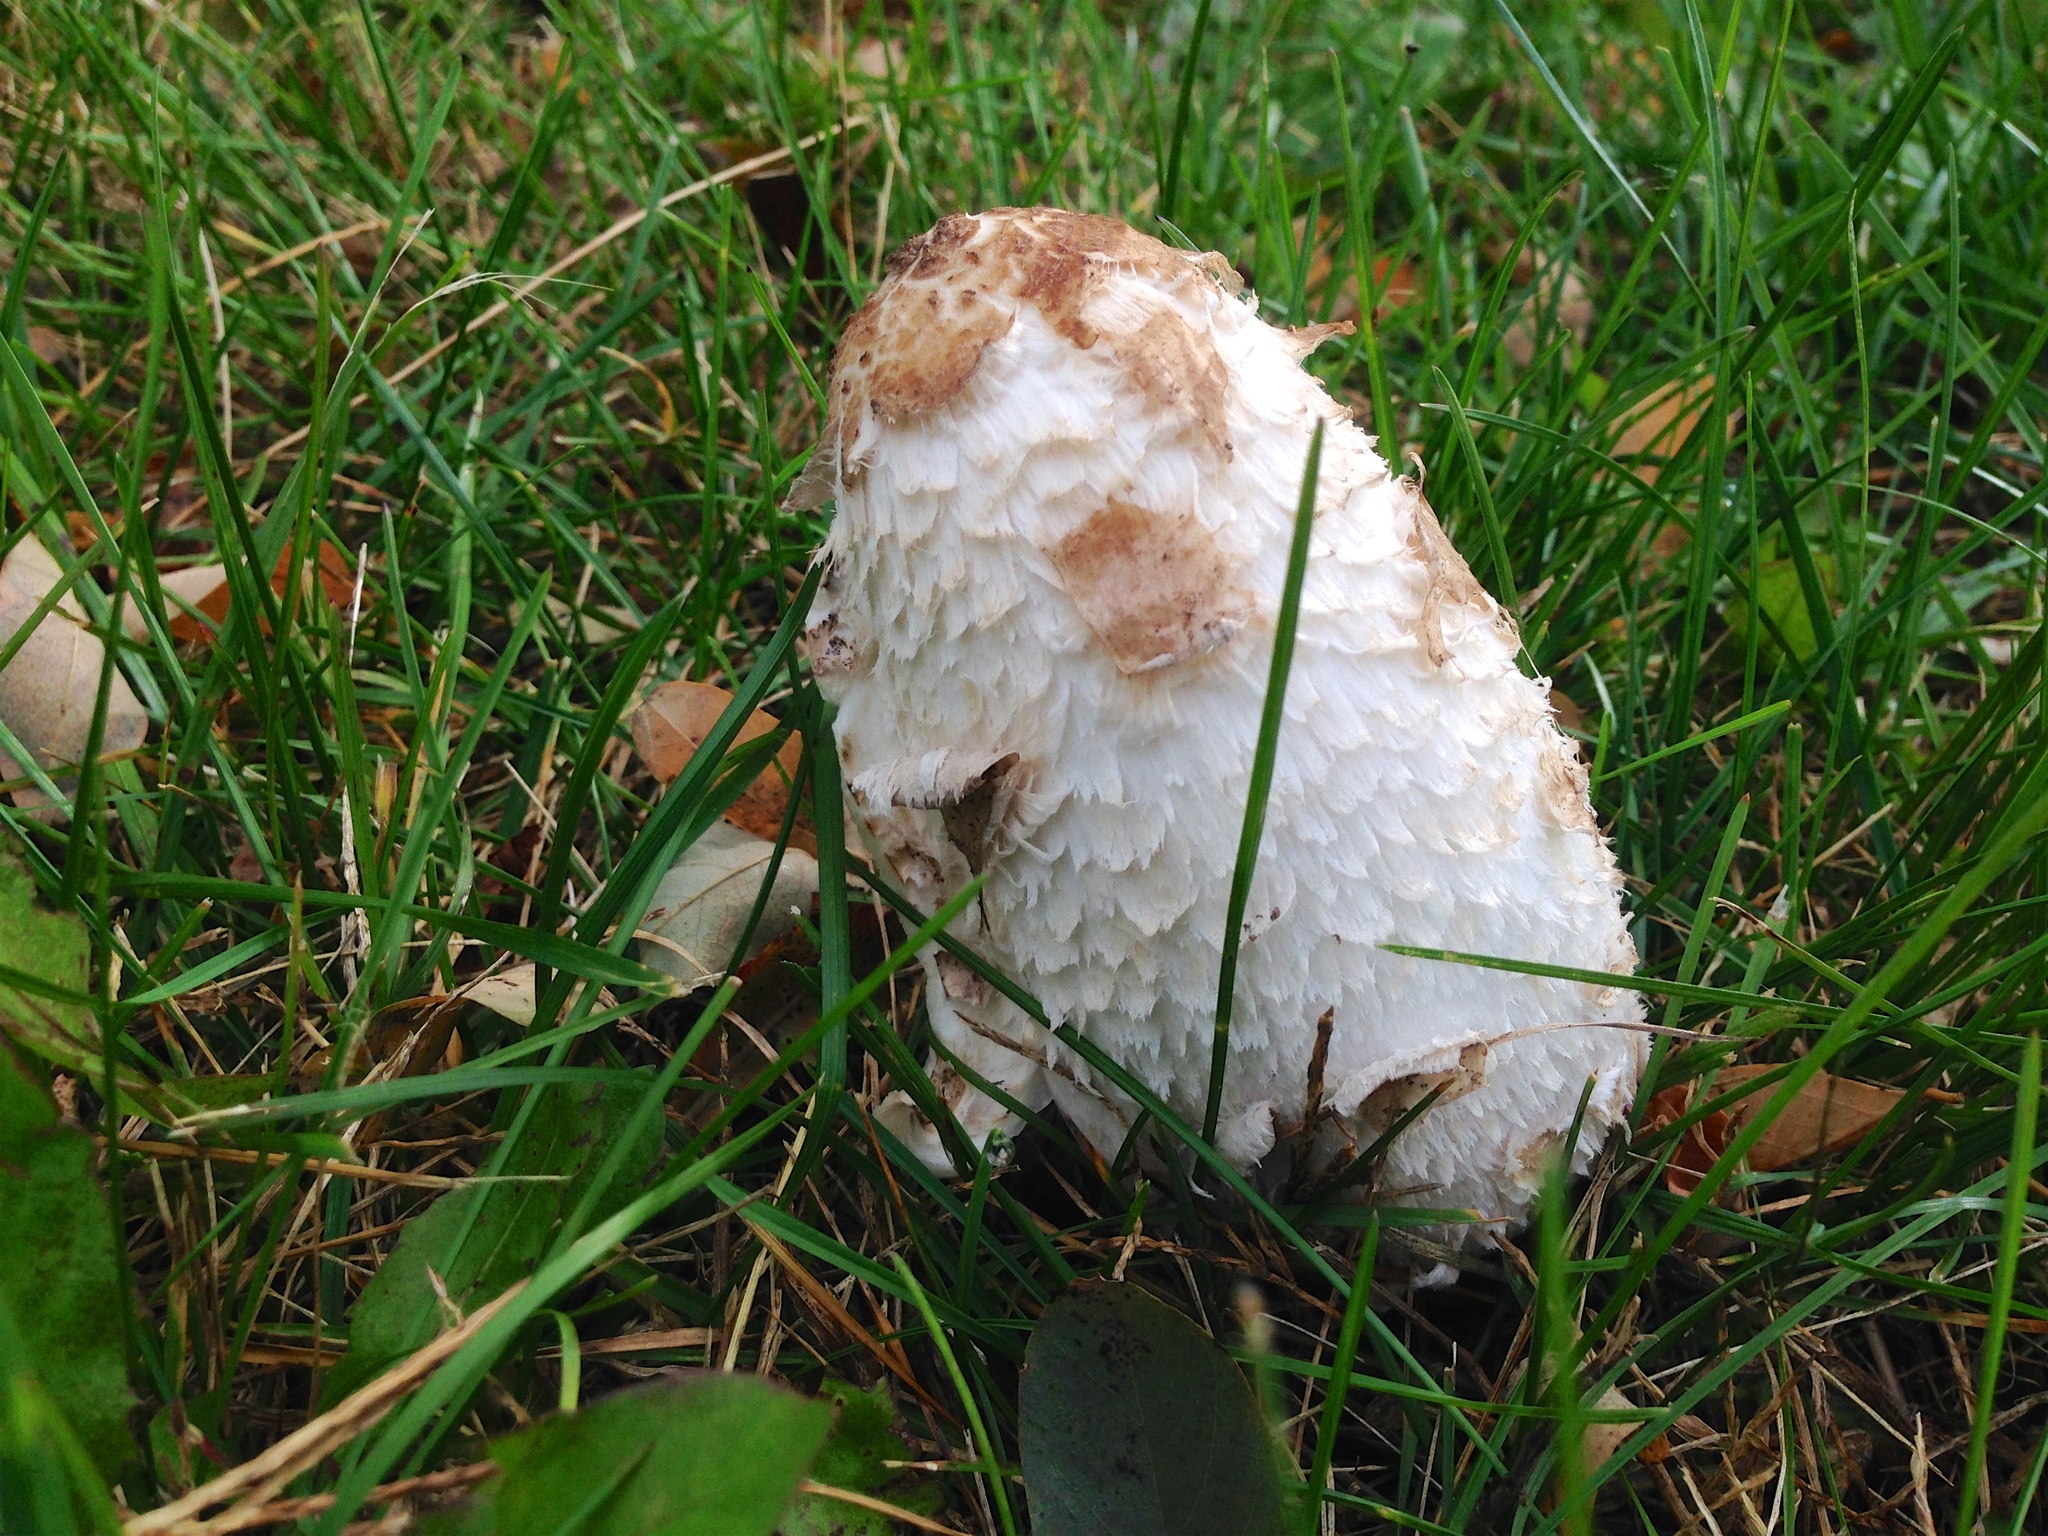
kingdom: Fungi
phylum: Basidiomycota
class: Agaricomycetes
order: Agaricales
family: Agaricaceae
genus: Coprinus
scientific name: Coprinus comatus
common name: Lawyer's wig
